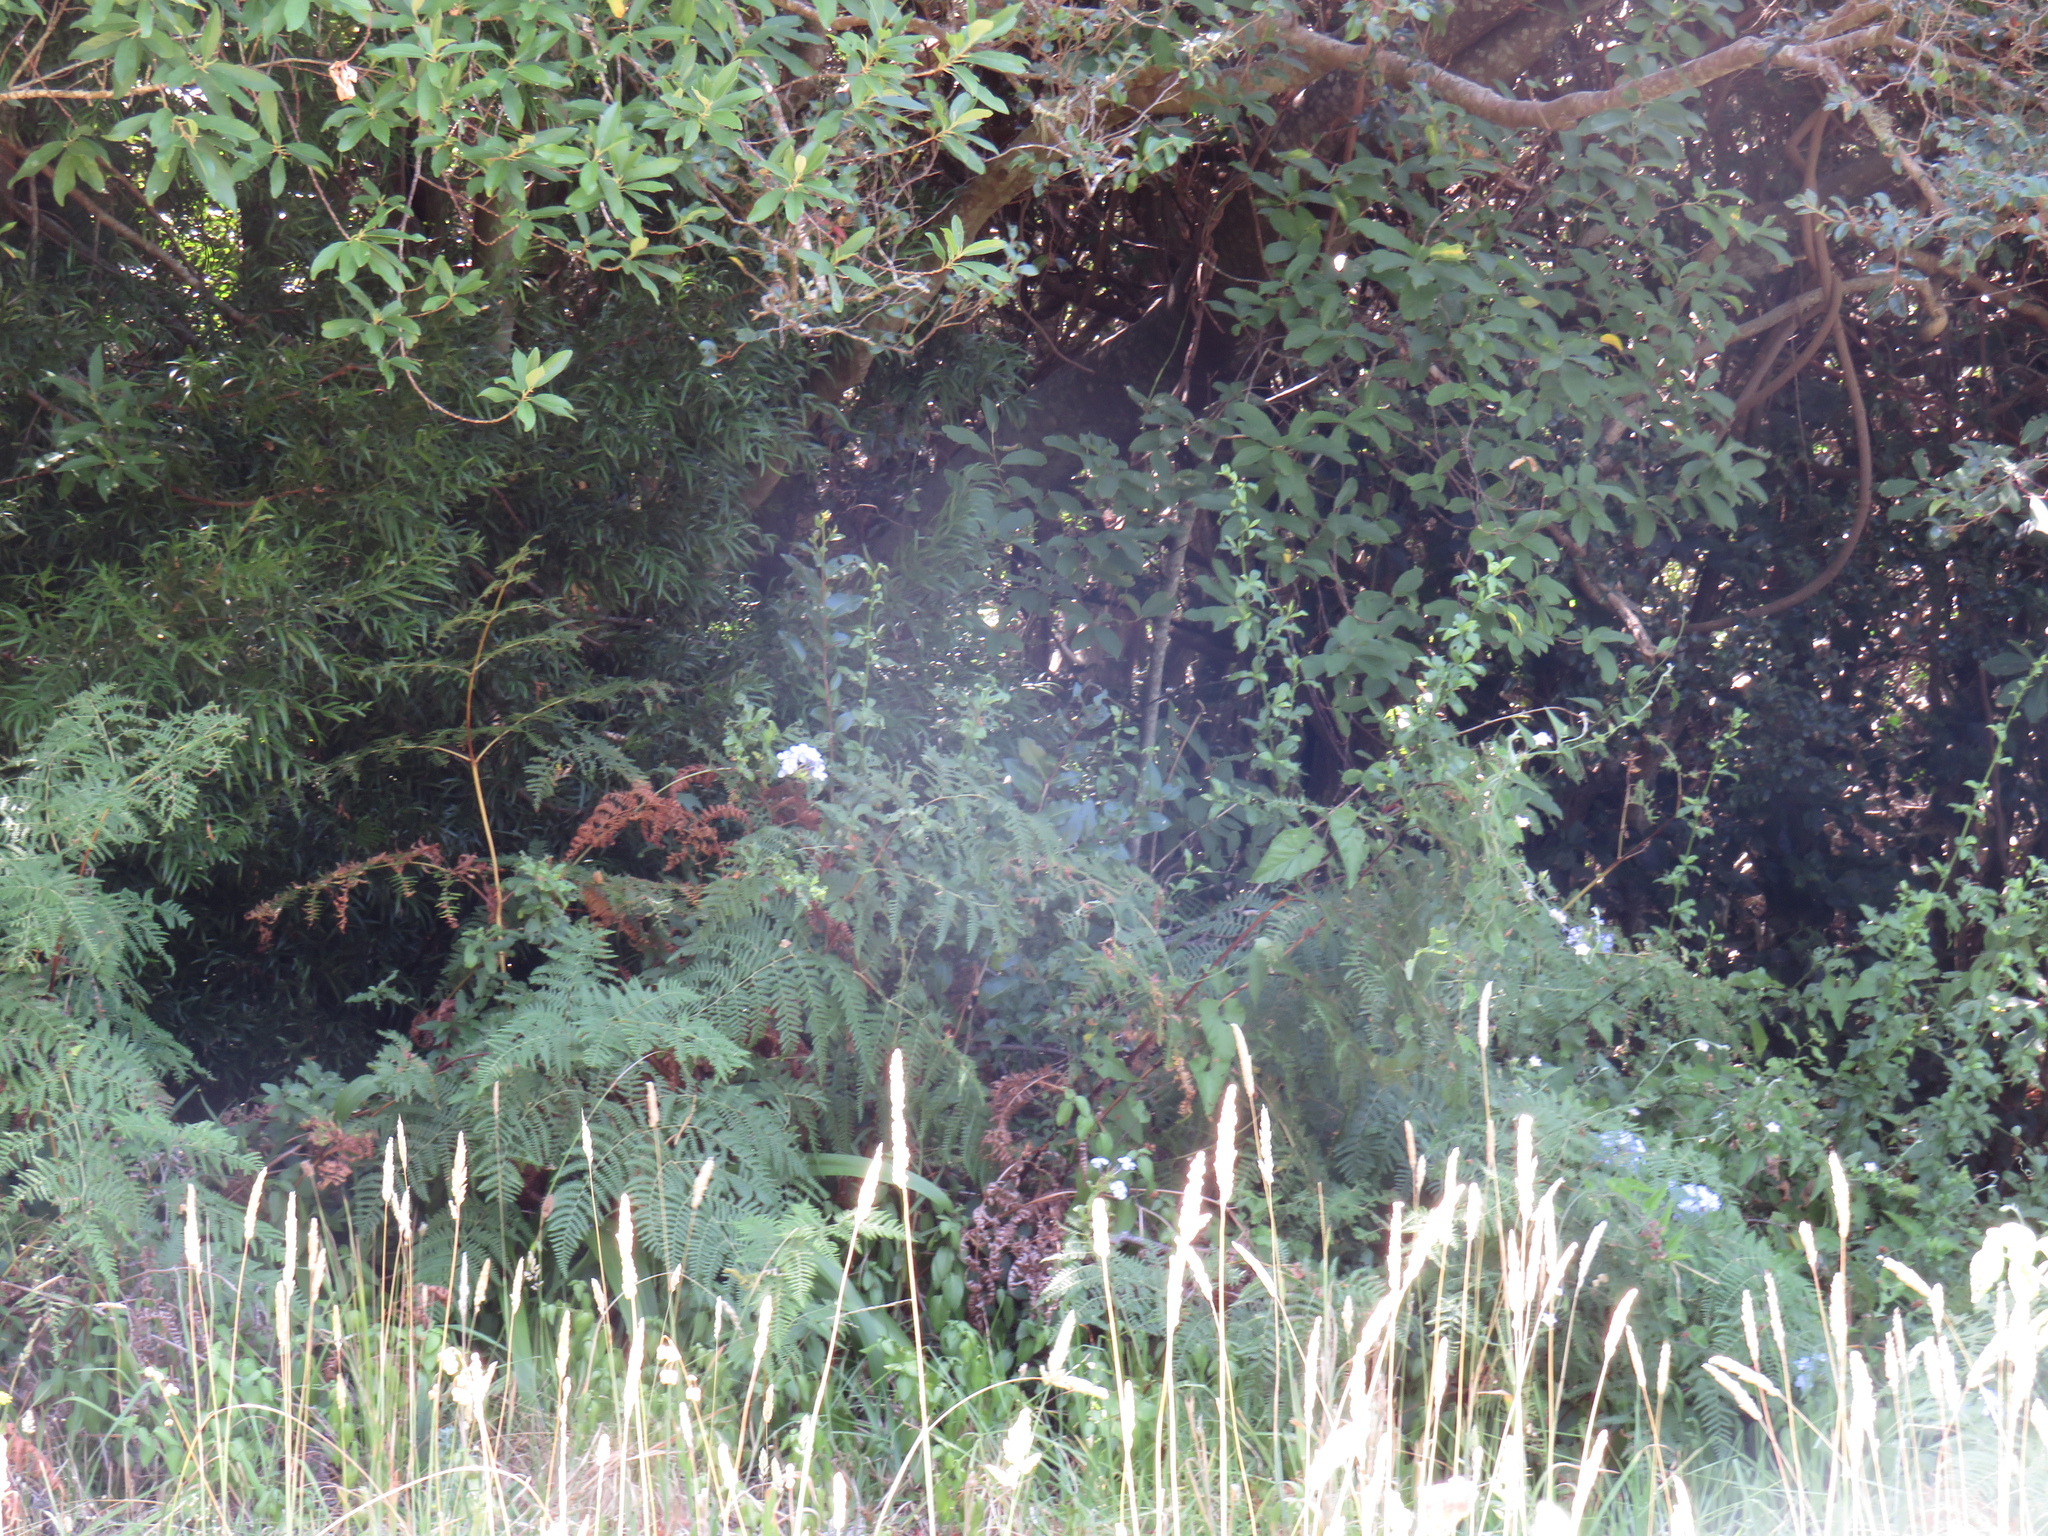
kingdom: Plantae
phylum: Tracheophyta
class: Magnoliopsida
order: Caryophyllales
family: Plumbaginaceae
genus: Plumbago
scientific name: Plumbago auriculata
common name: Cape leadwort
